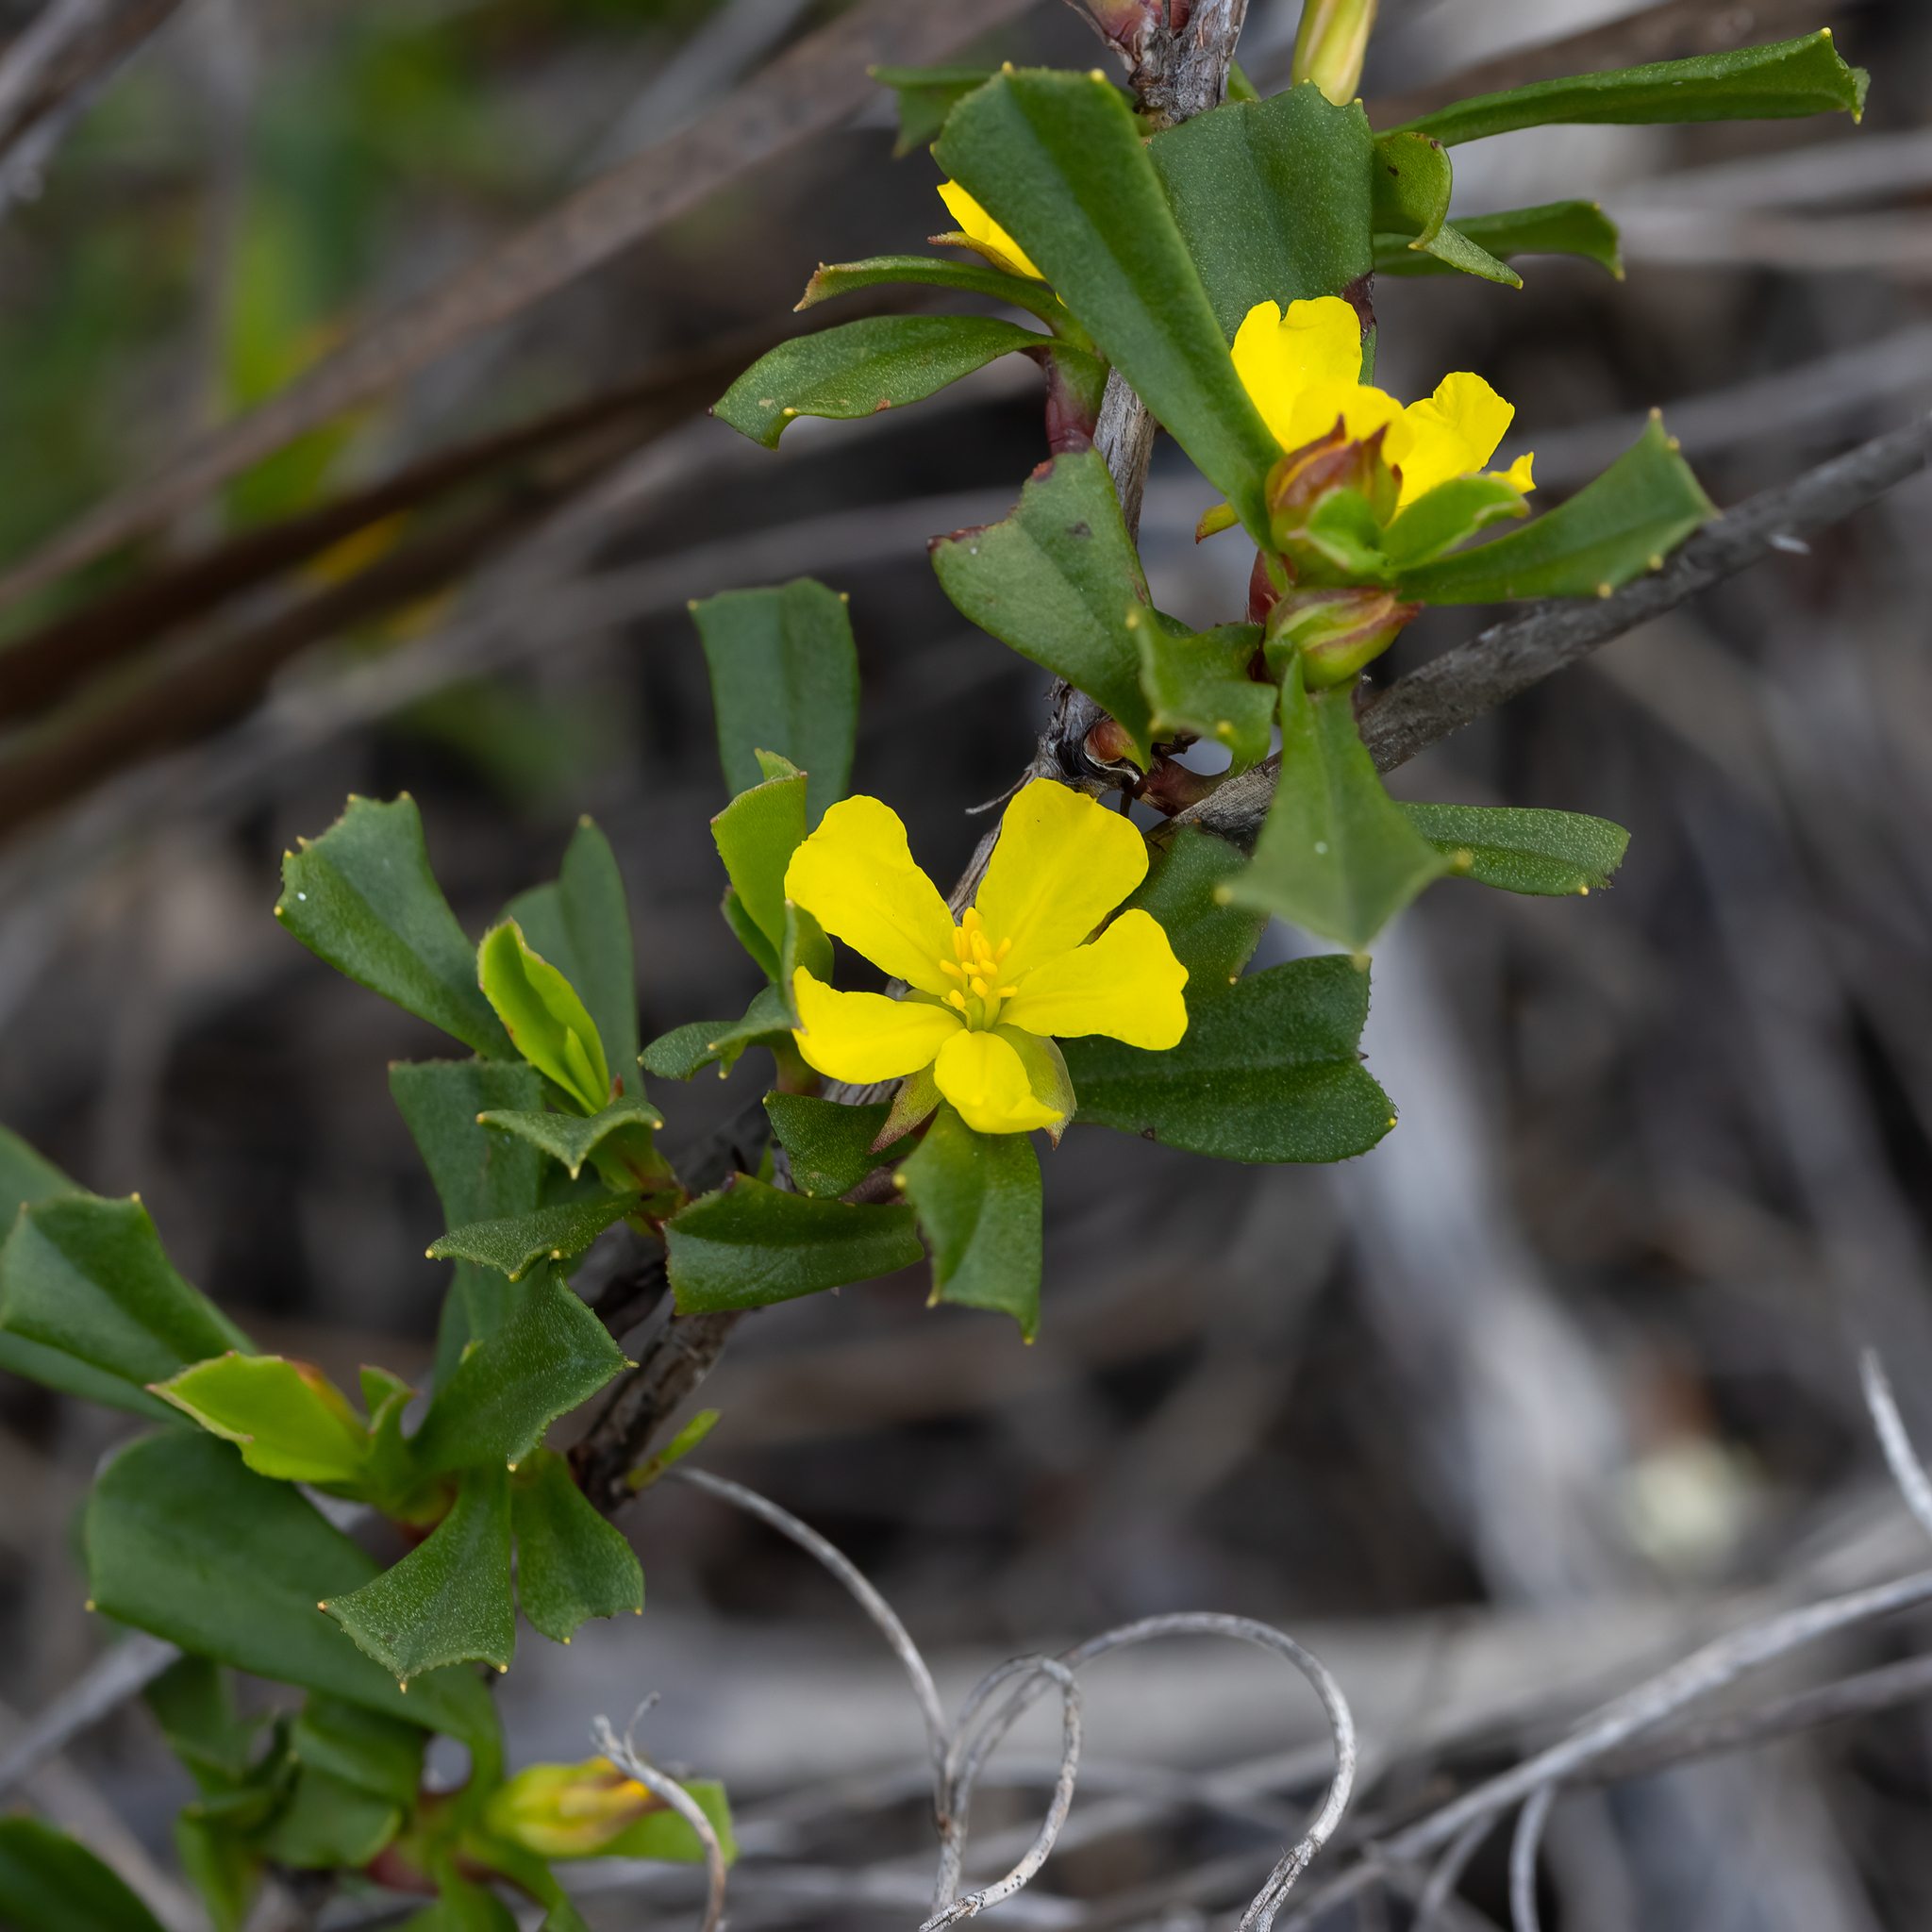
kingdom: Plantae
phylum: Tracheophyta
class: Magnoliopsida
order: Dilleniales
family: Dilleniaceae
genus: Hibbertia
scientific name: Hibbertia racemosa
